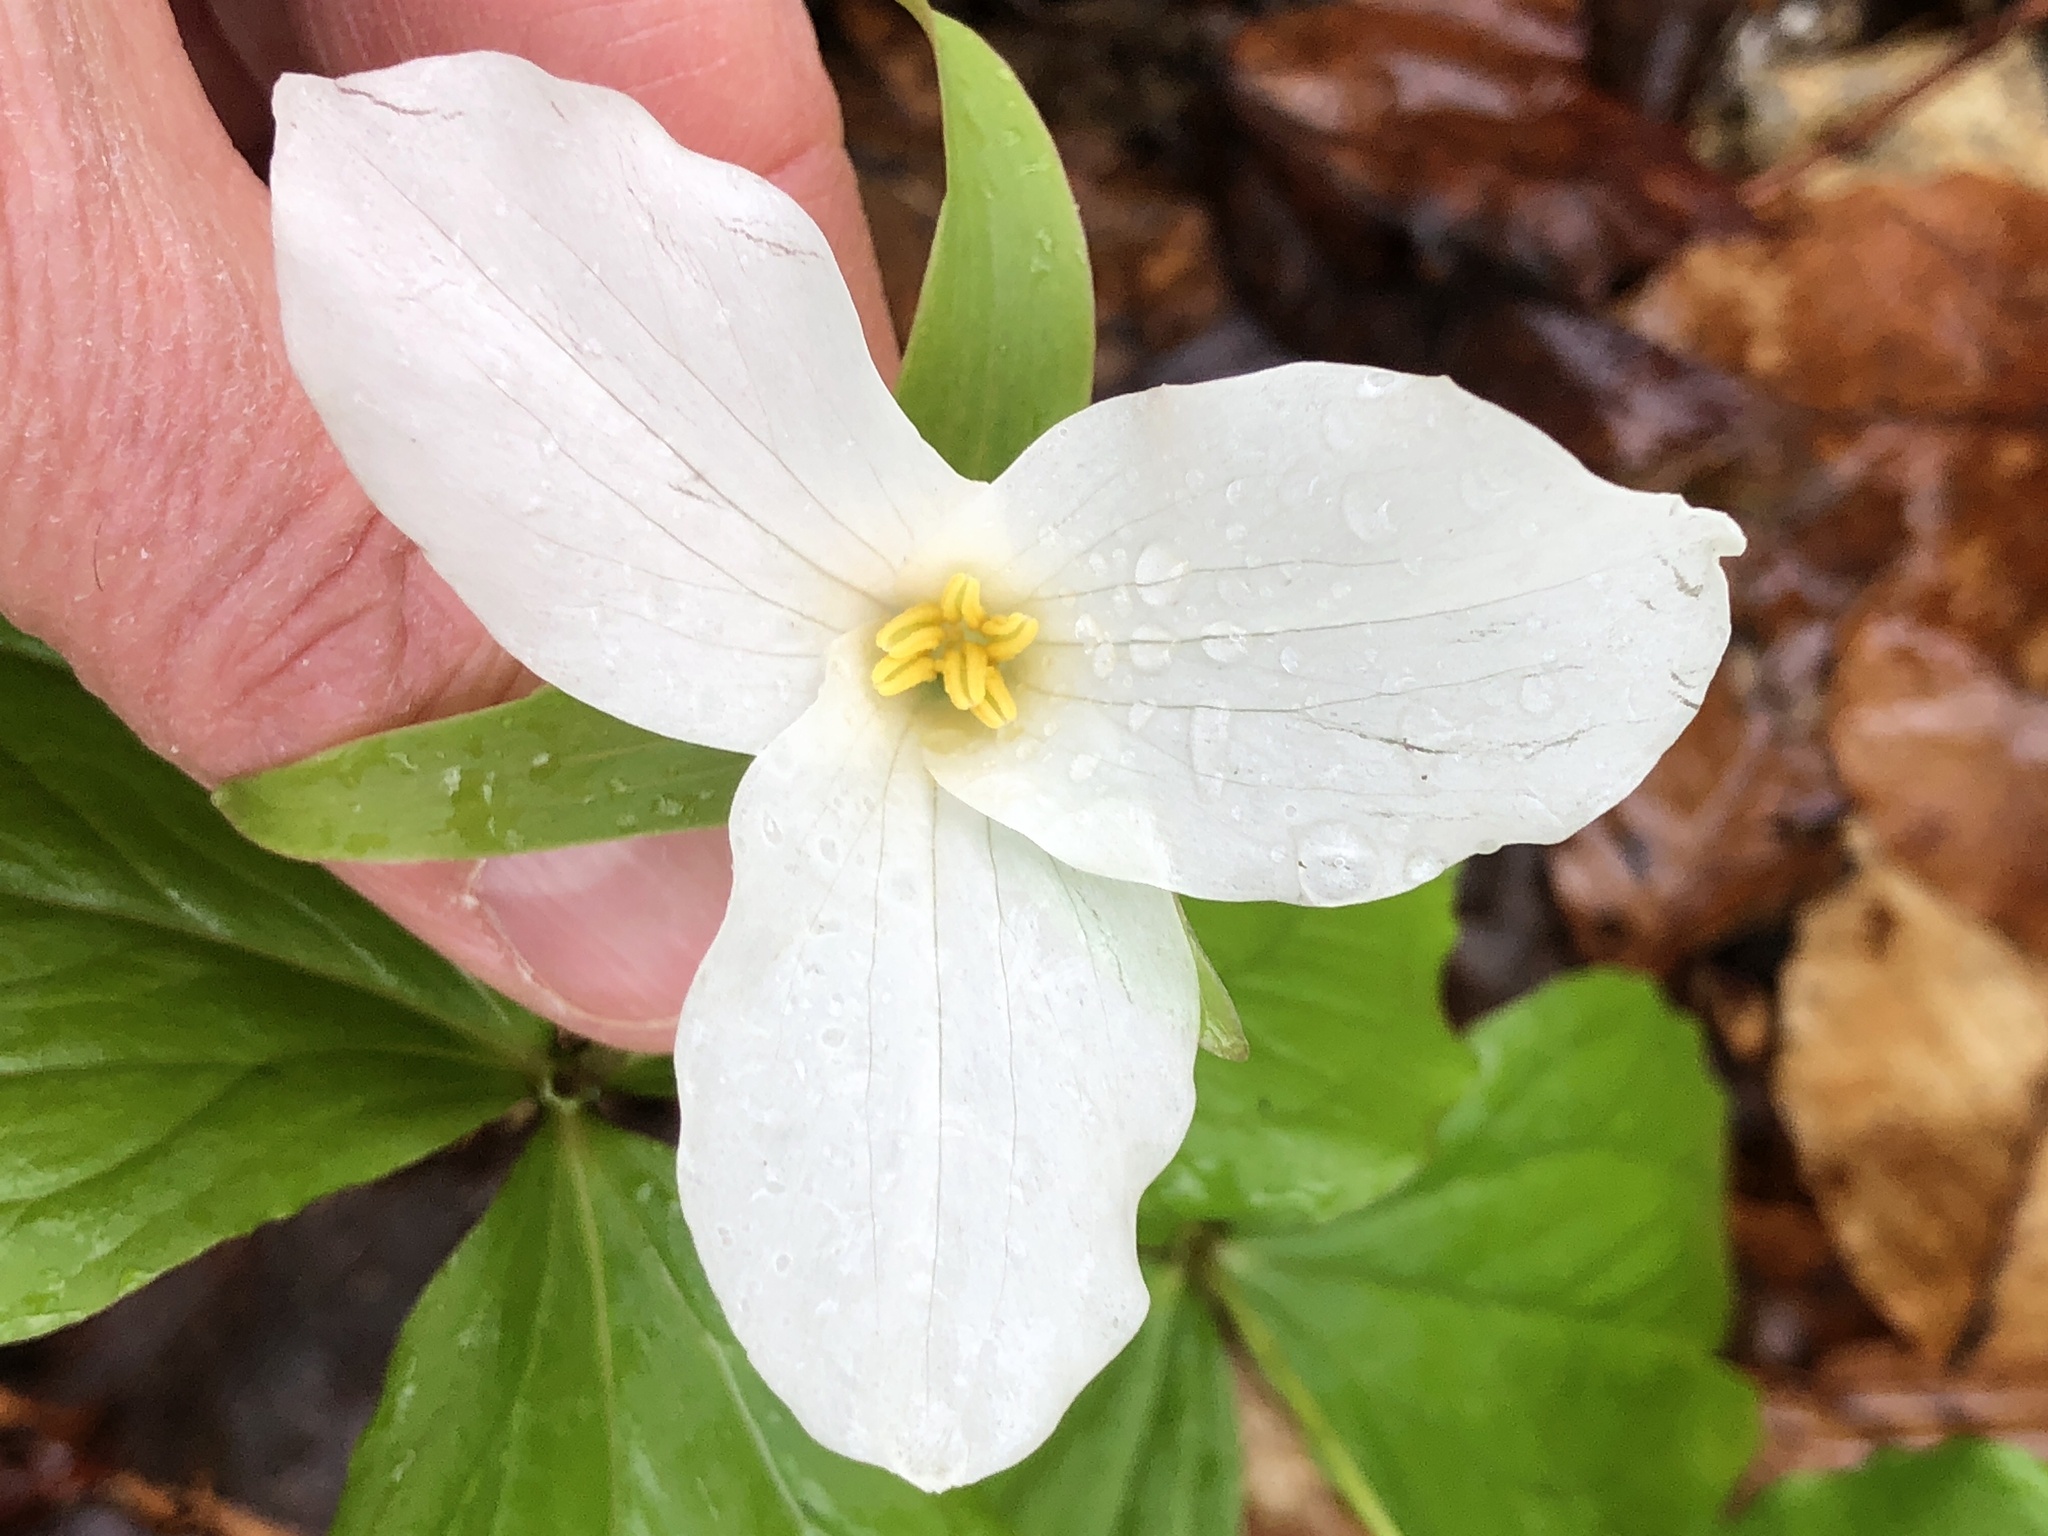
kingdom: Plantae
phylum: Tracheophyta
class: Liliopsida
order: Liliales
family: Melanthiaceae
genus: Trillium
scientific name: Trillium grandiflorum
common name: Great white trillium
